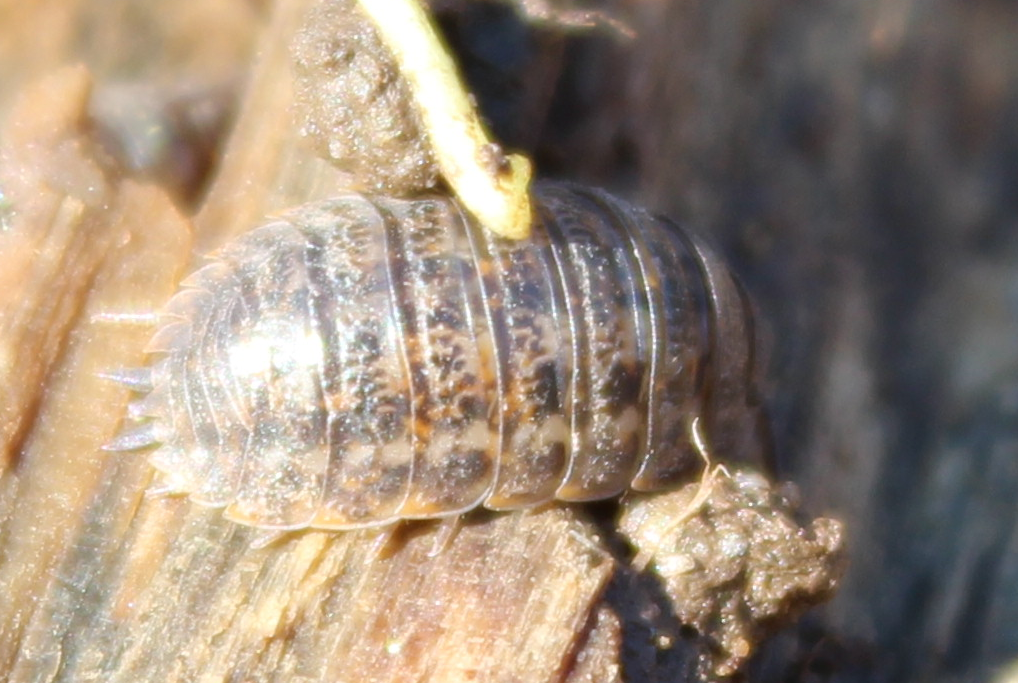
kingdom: Animalia
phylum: Arthropoda
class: Malacostraca
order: Isopoda
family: Trachelipodidae
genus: Trachelipus
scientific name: Trachelipus rathkii
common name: Isopod
